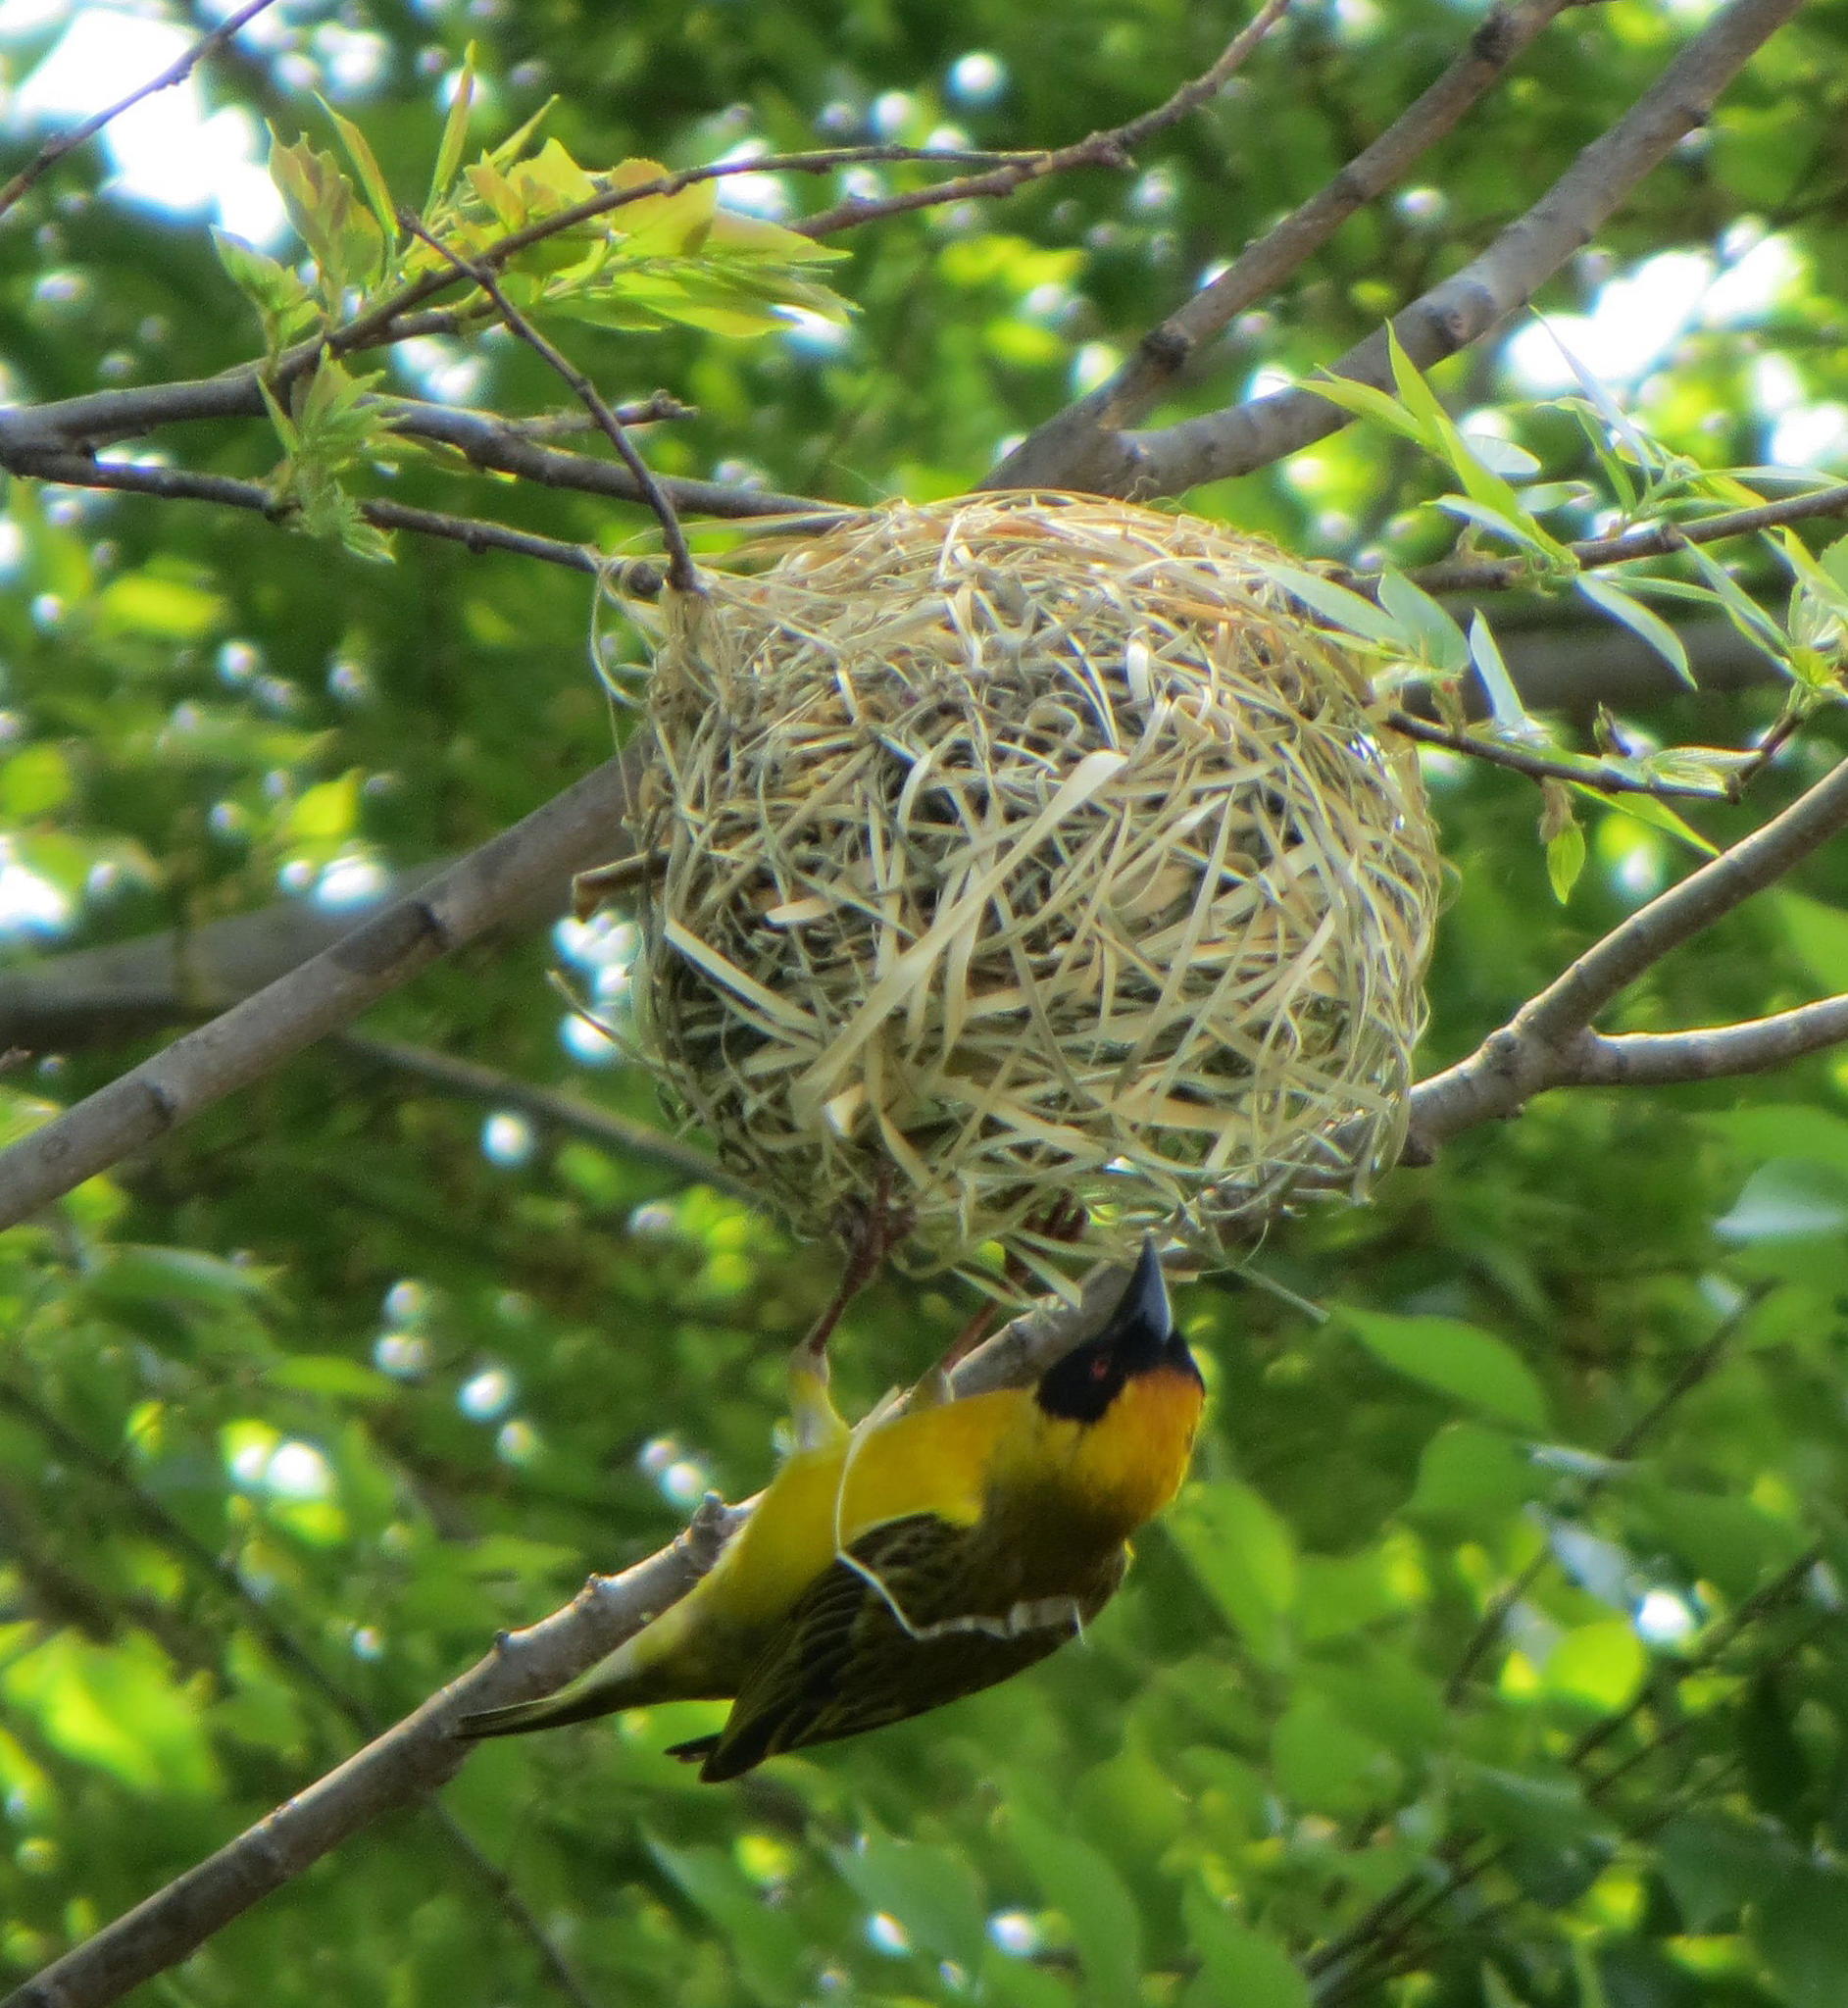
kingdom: Animalia
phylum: Chordata
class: Aves
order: Passeriformes
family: Ploceidae
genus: Ploceus
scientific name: Ploceus velatus
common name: Southern masked weaver
